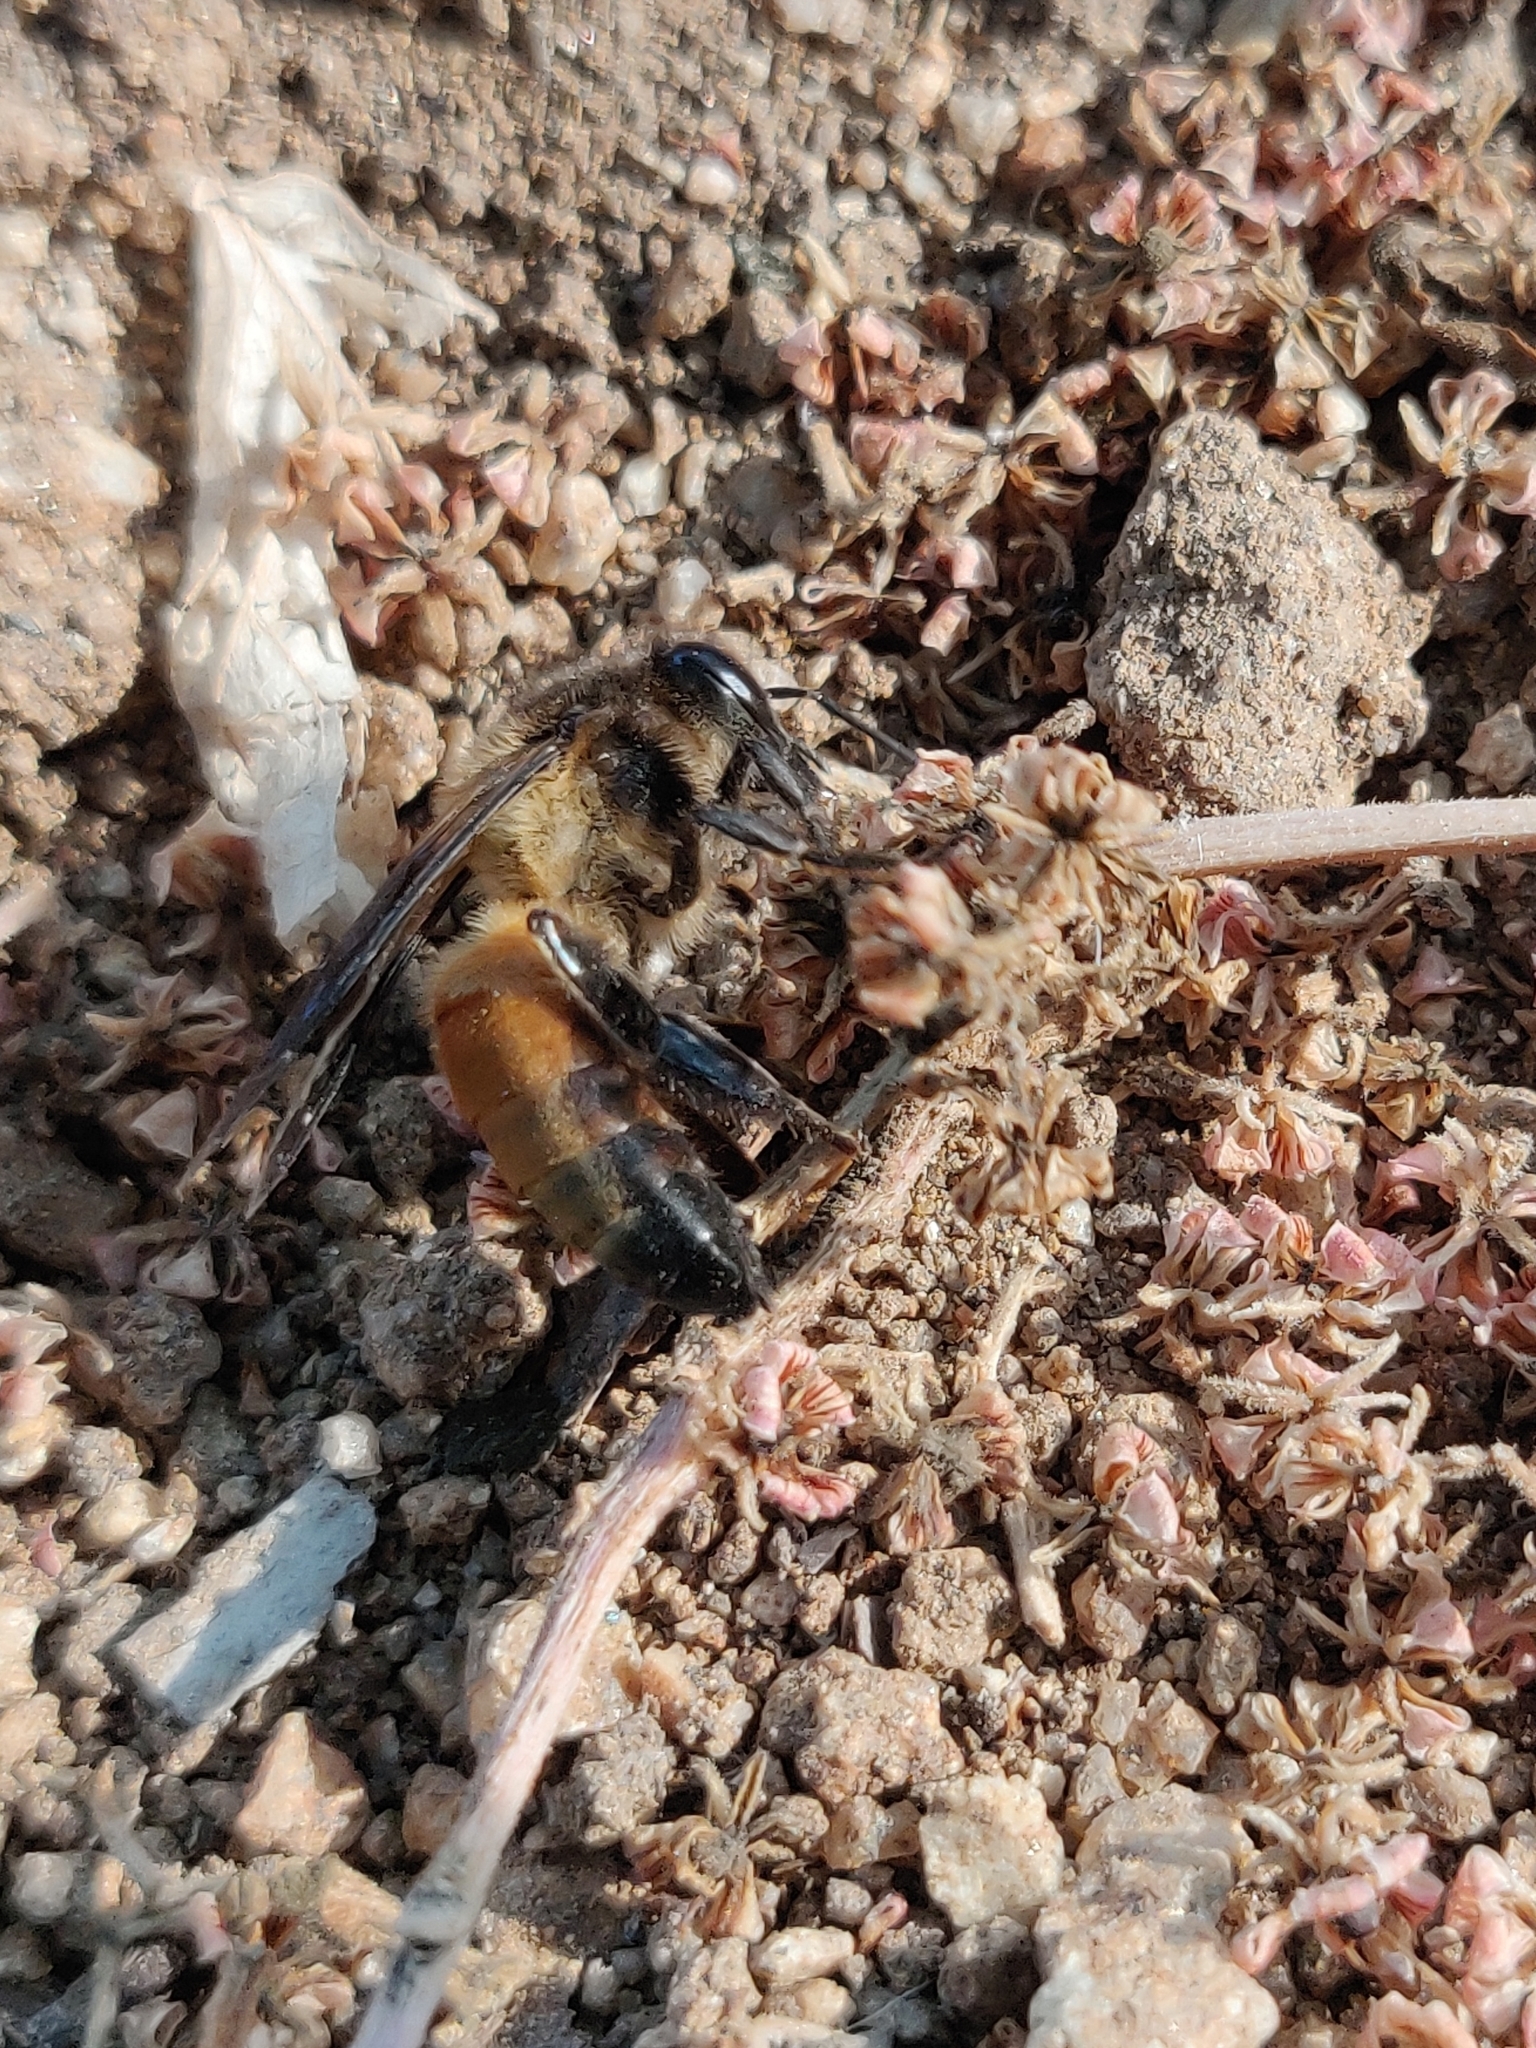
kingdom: Animalia
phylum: Arthropoda
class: Insecta
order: Hymenoptera
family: Apidae
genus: Apis
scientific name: Apis dorsata
